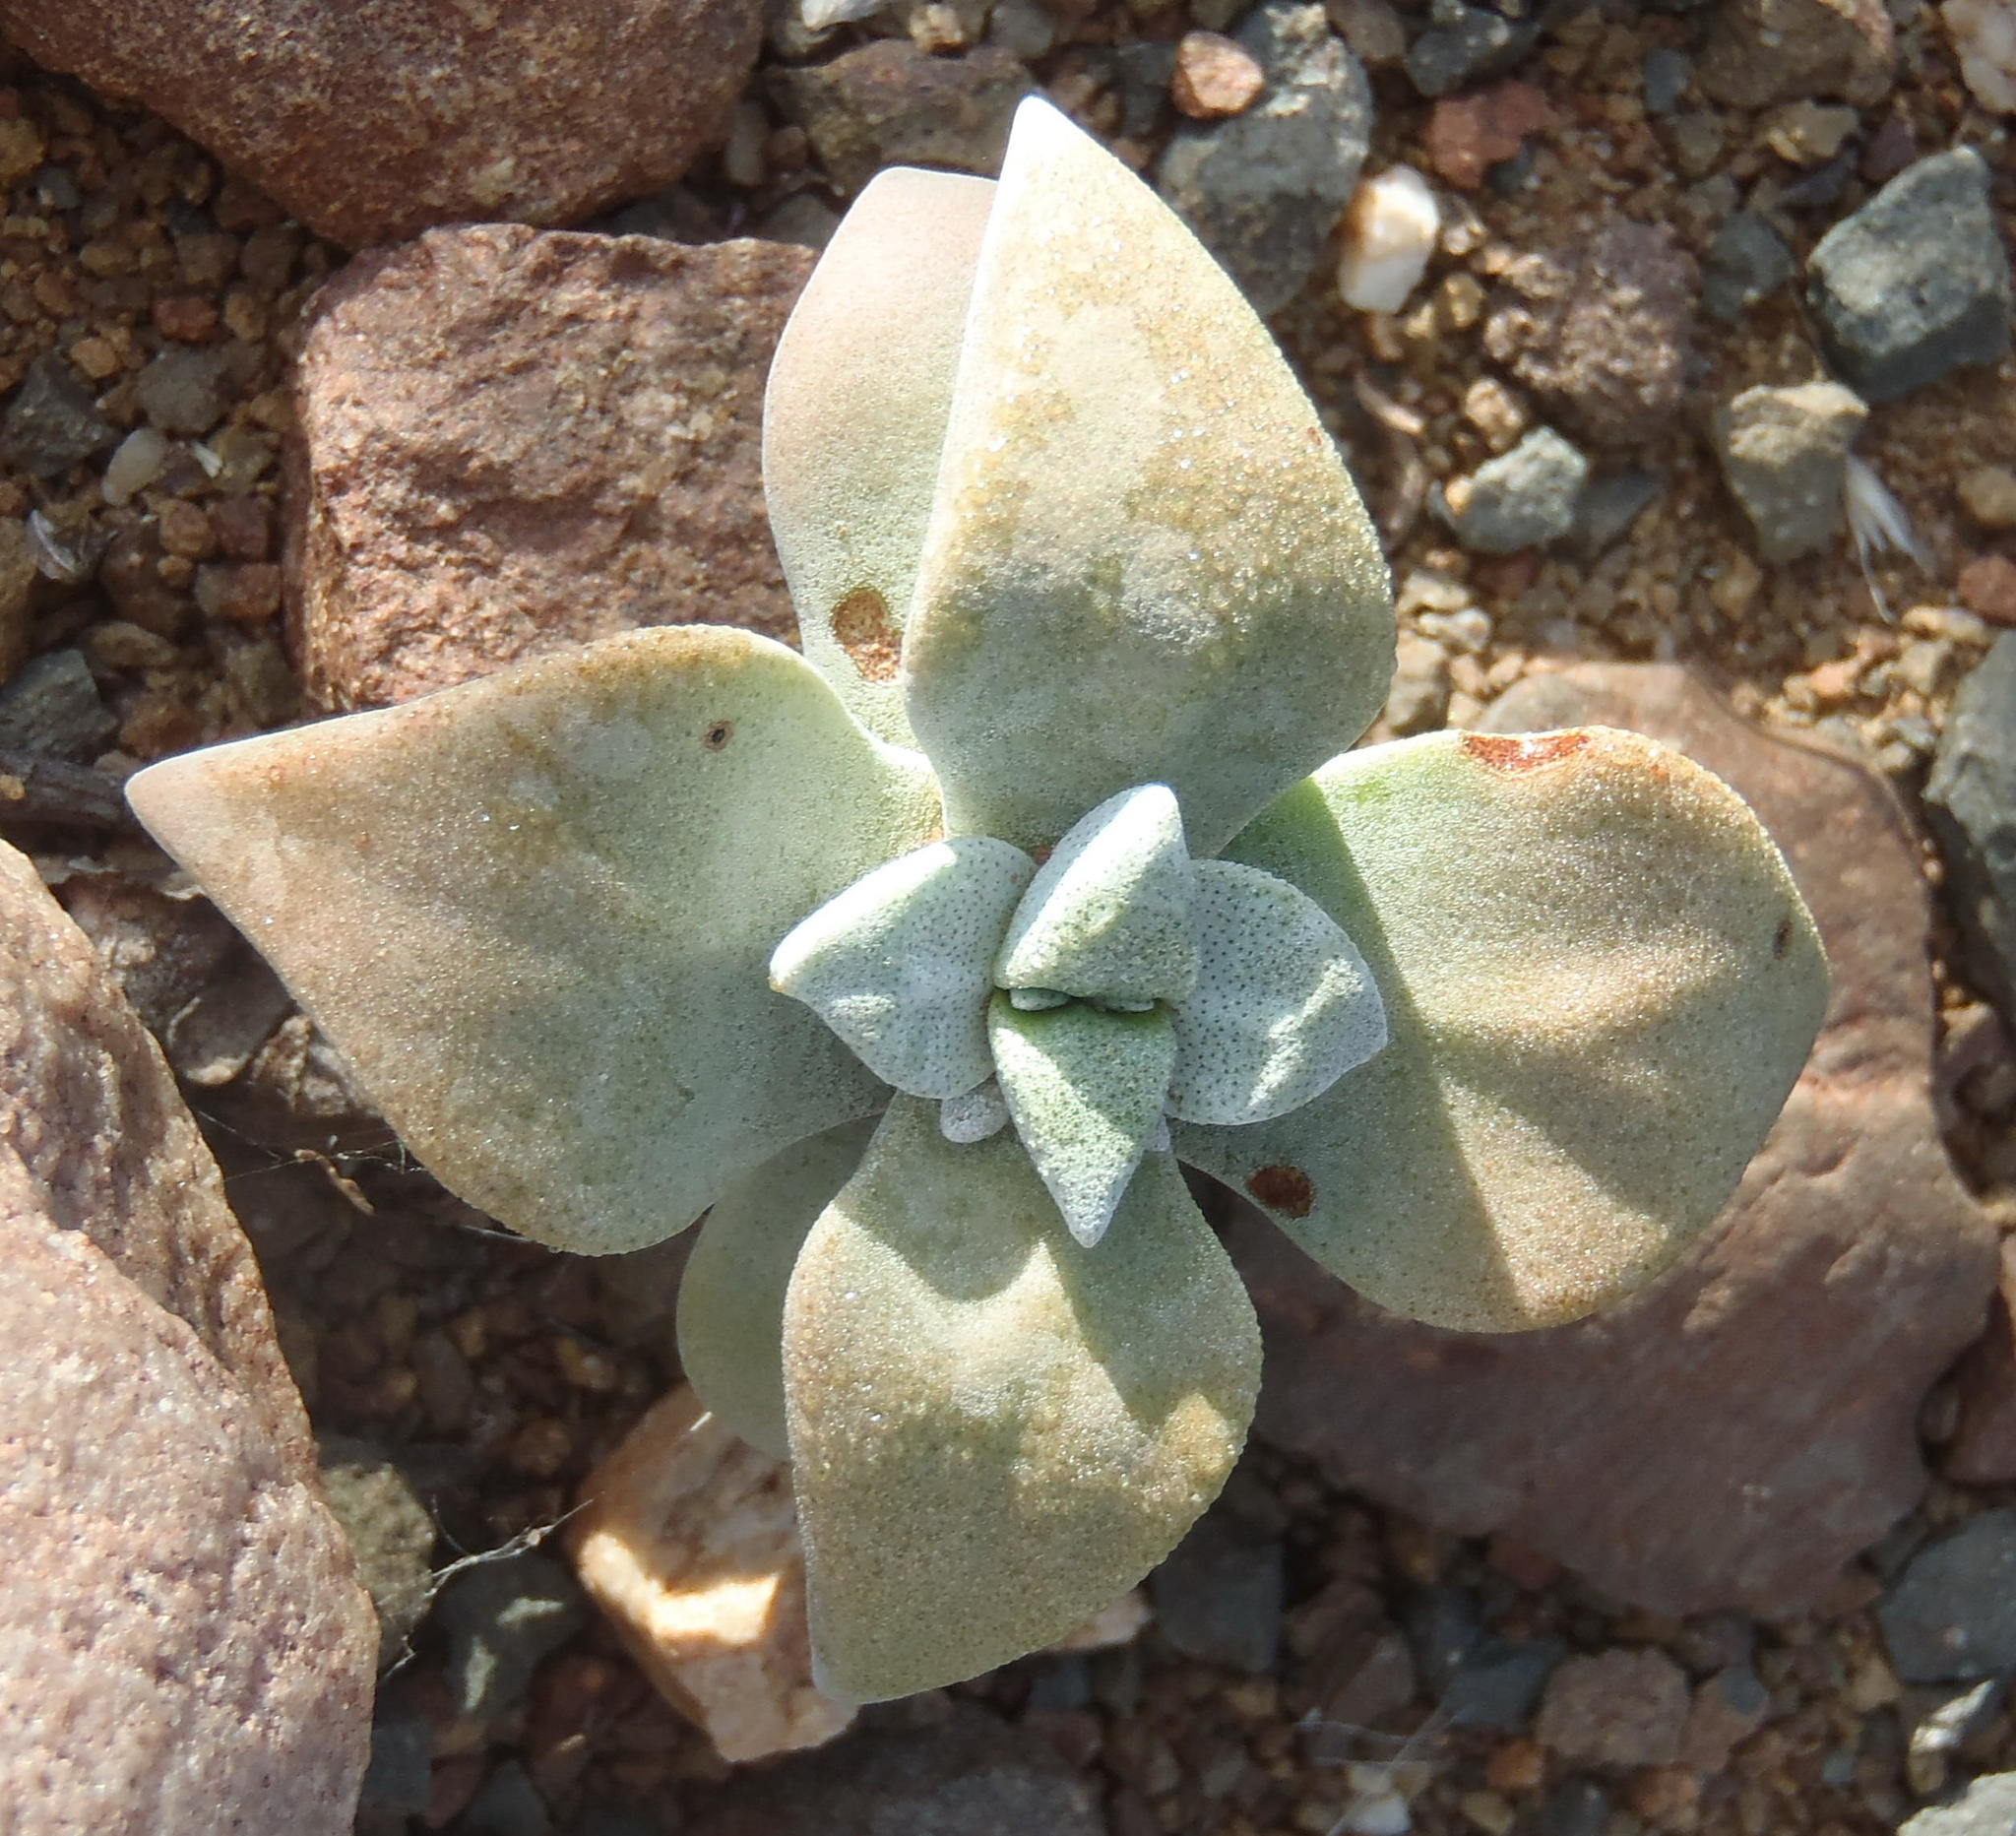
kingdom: Plantae
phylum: Tracheophyta
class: Magnoliopsida
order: Saxifragales
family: Crassulaceae
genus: Crassula
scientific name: Crassula deltoidea
